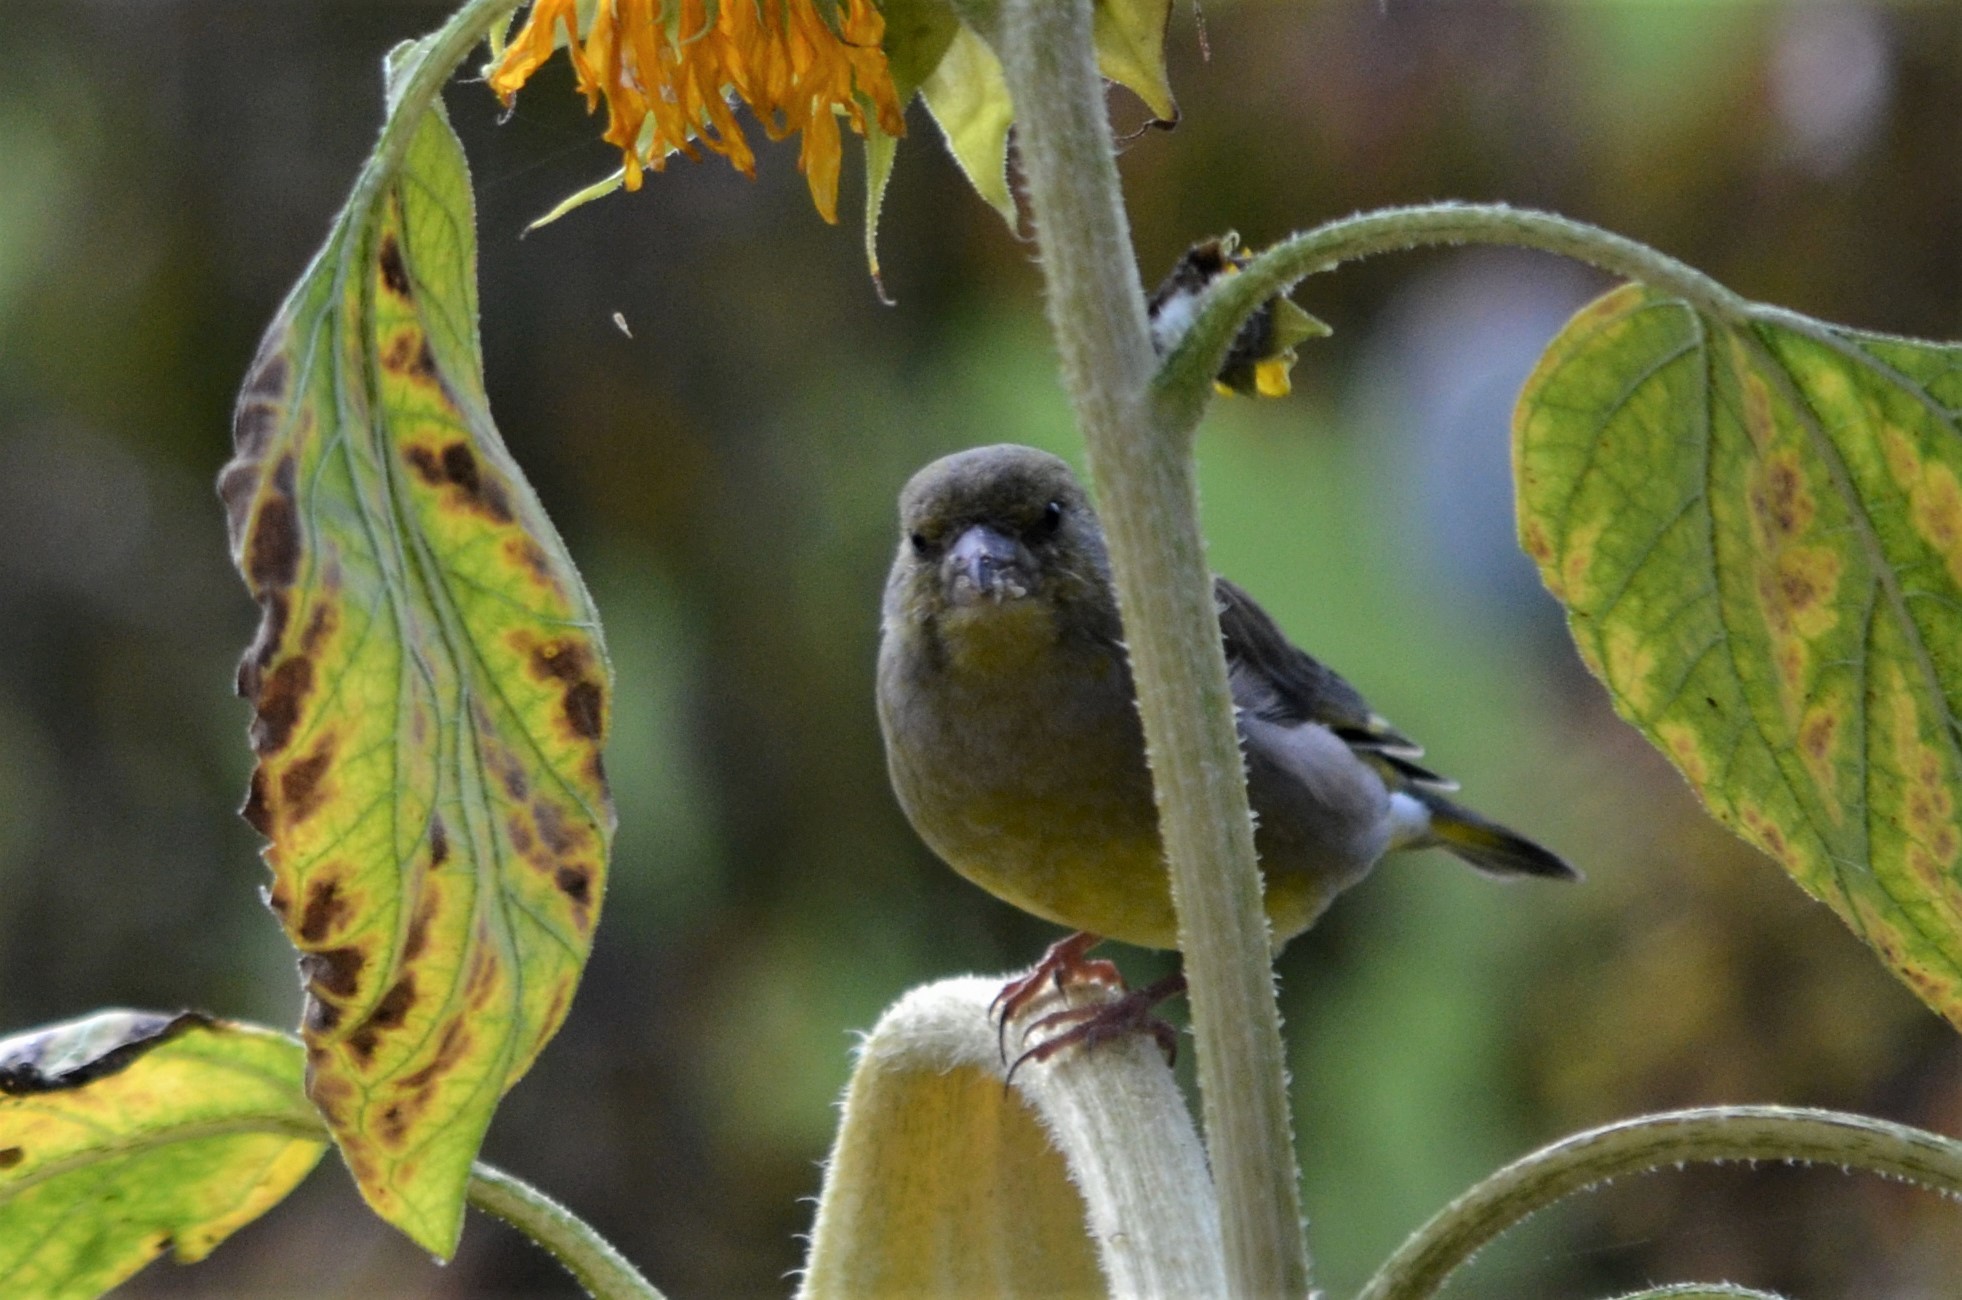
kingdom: Plantae
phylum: Tracheophyta
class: Liliopsida
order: Poales
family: Poaceae
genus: Chloris
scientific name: Chloris chloris
